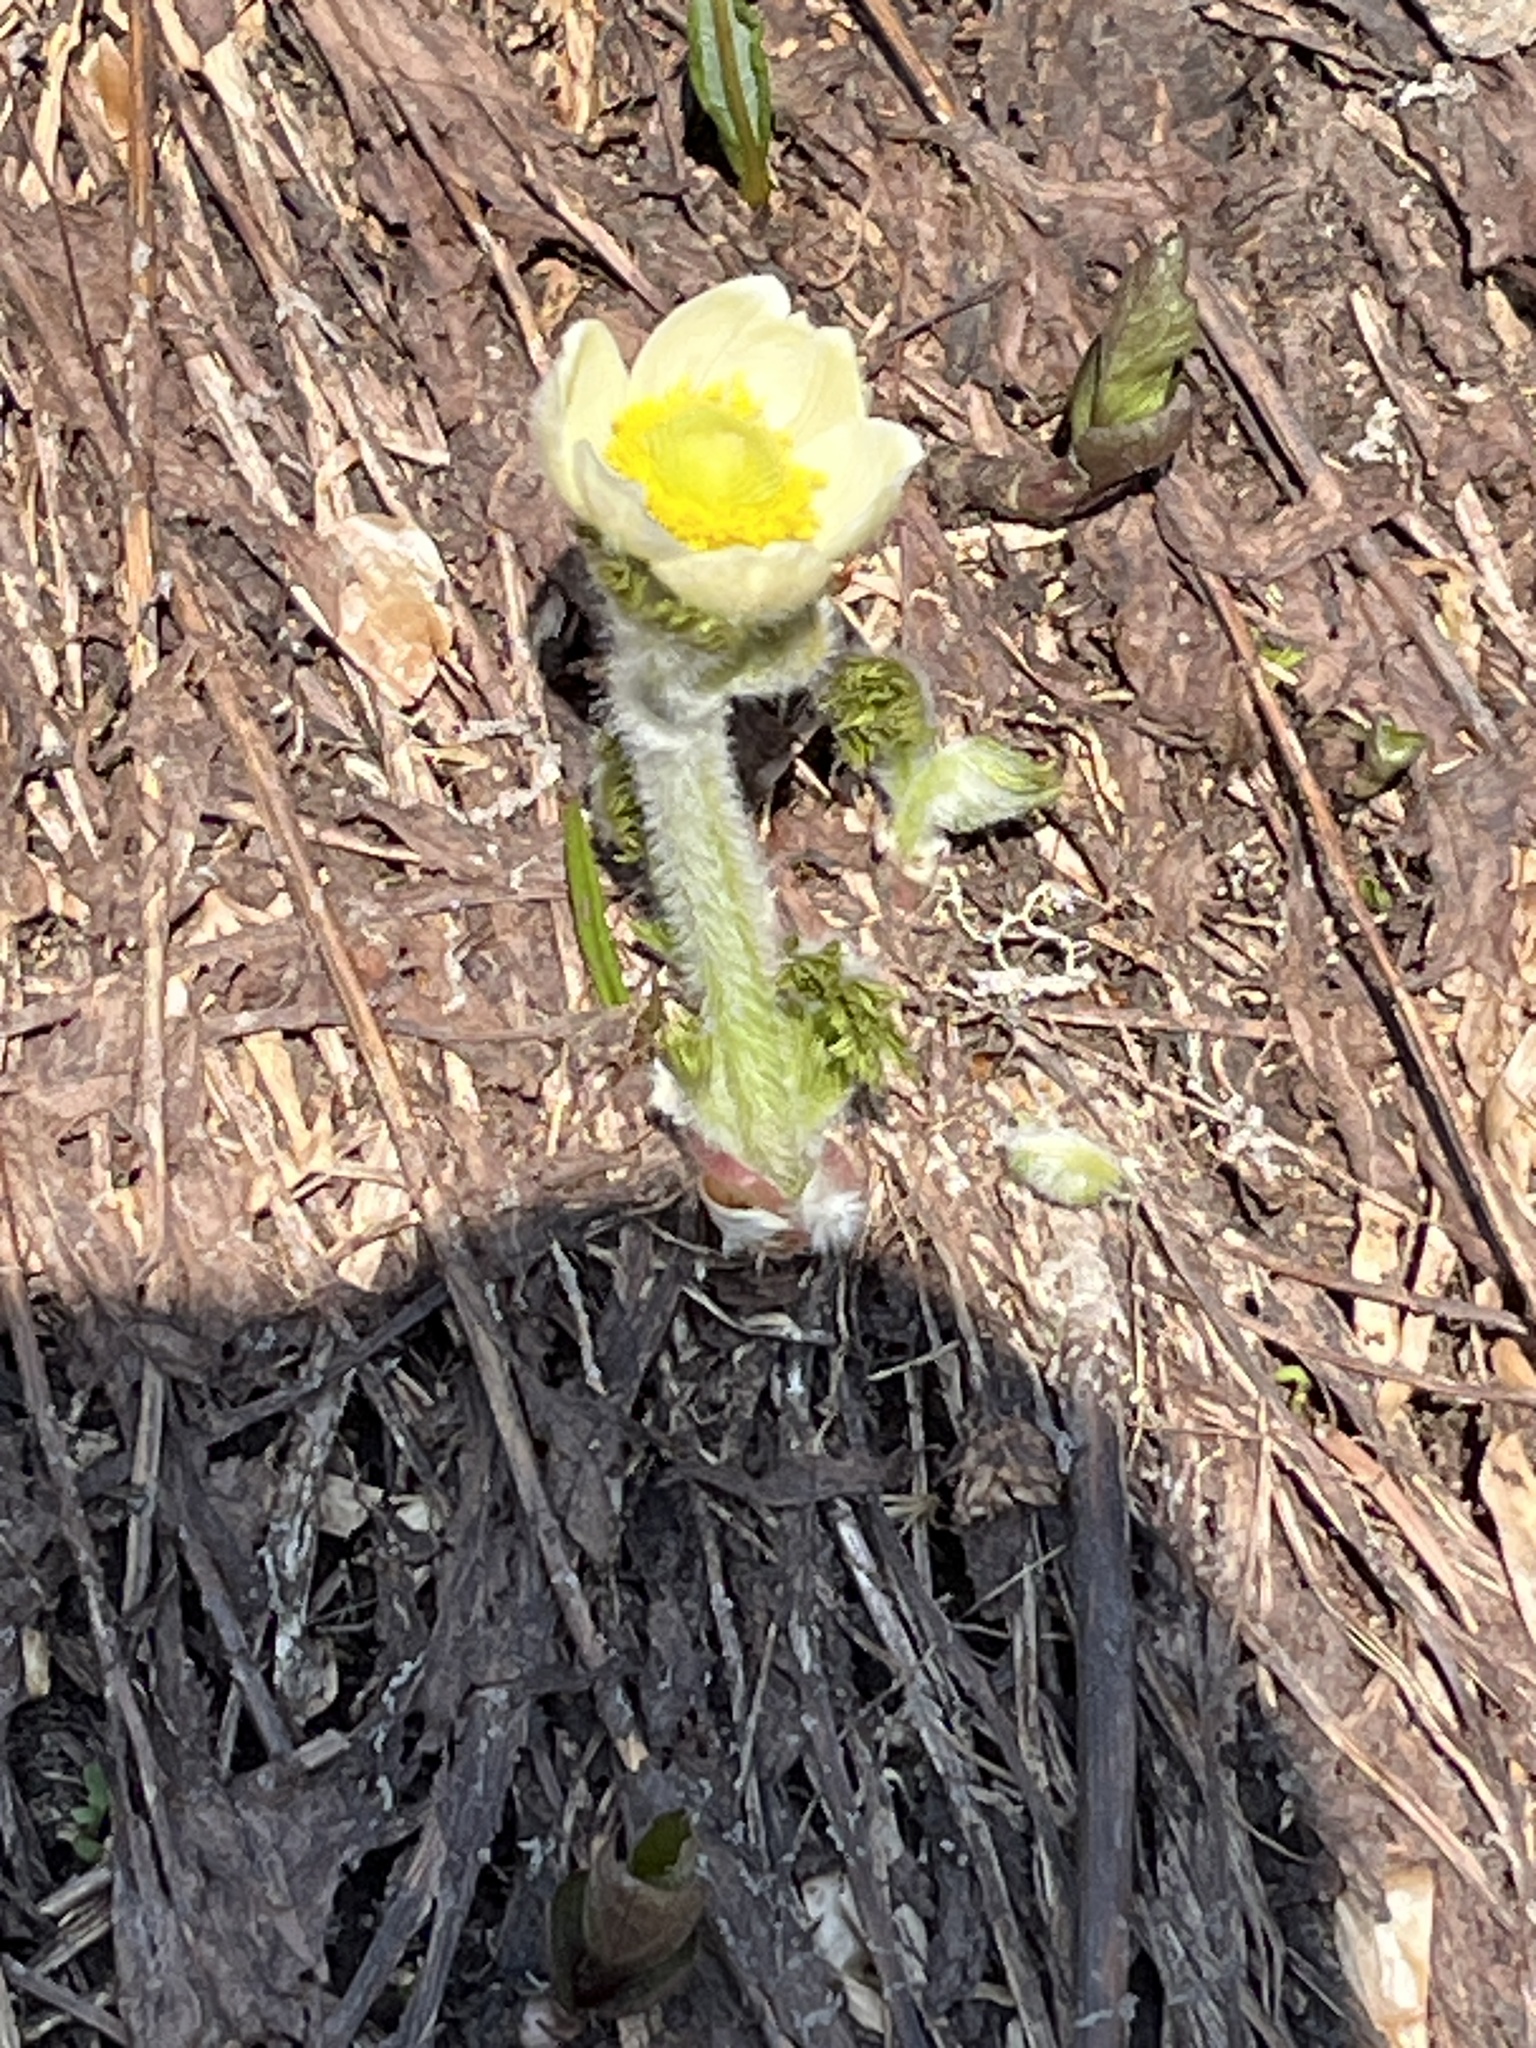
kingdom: Plantae
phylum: Tracheophyta
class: Magnoliopsida
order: Ranunculales
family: Ranunculaceae
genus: Pulsatilla
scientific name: Pulsatilla occidentalis
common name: Mountain pasqueflower
